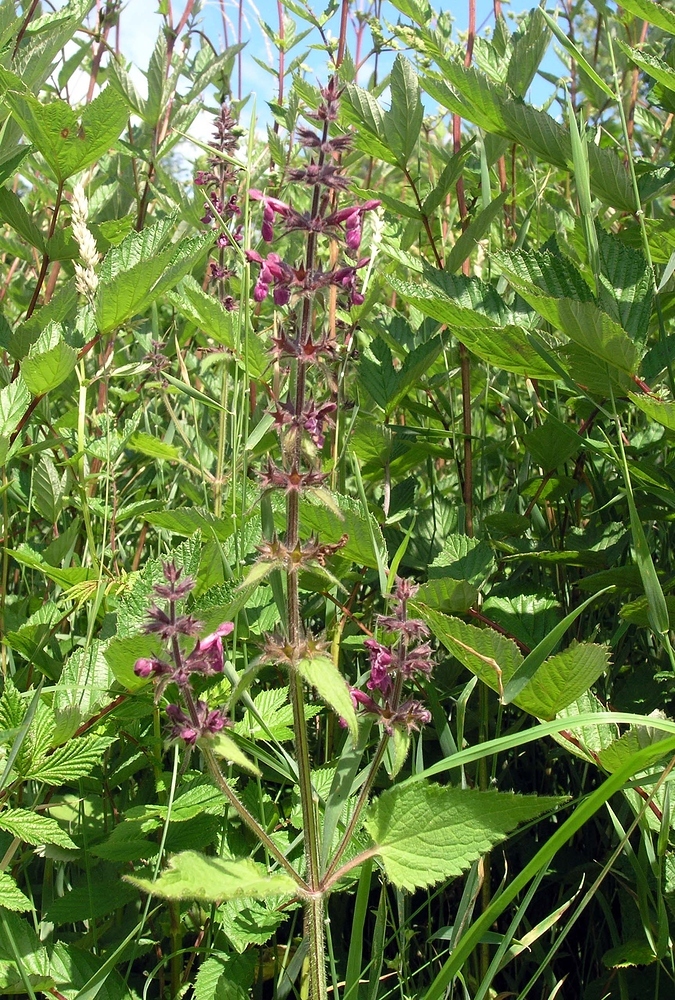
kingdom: Plantae
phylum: Tracheophyta
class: Magnoliopsida
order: Lamiales
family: Lamiaceae
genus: Stachys
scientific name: Stachys sylvatica
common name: Hedge woundwort
